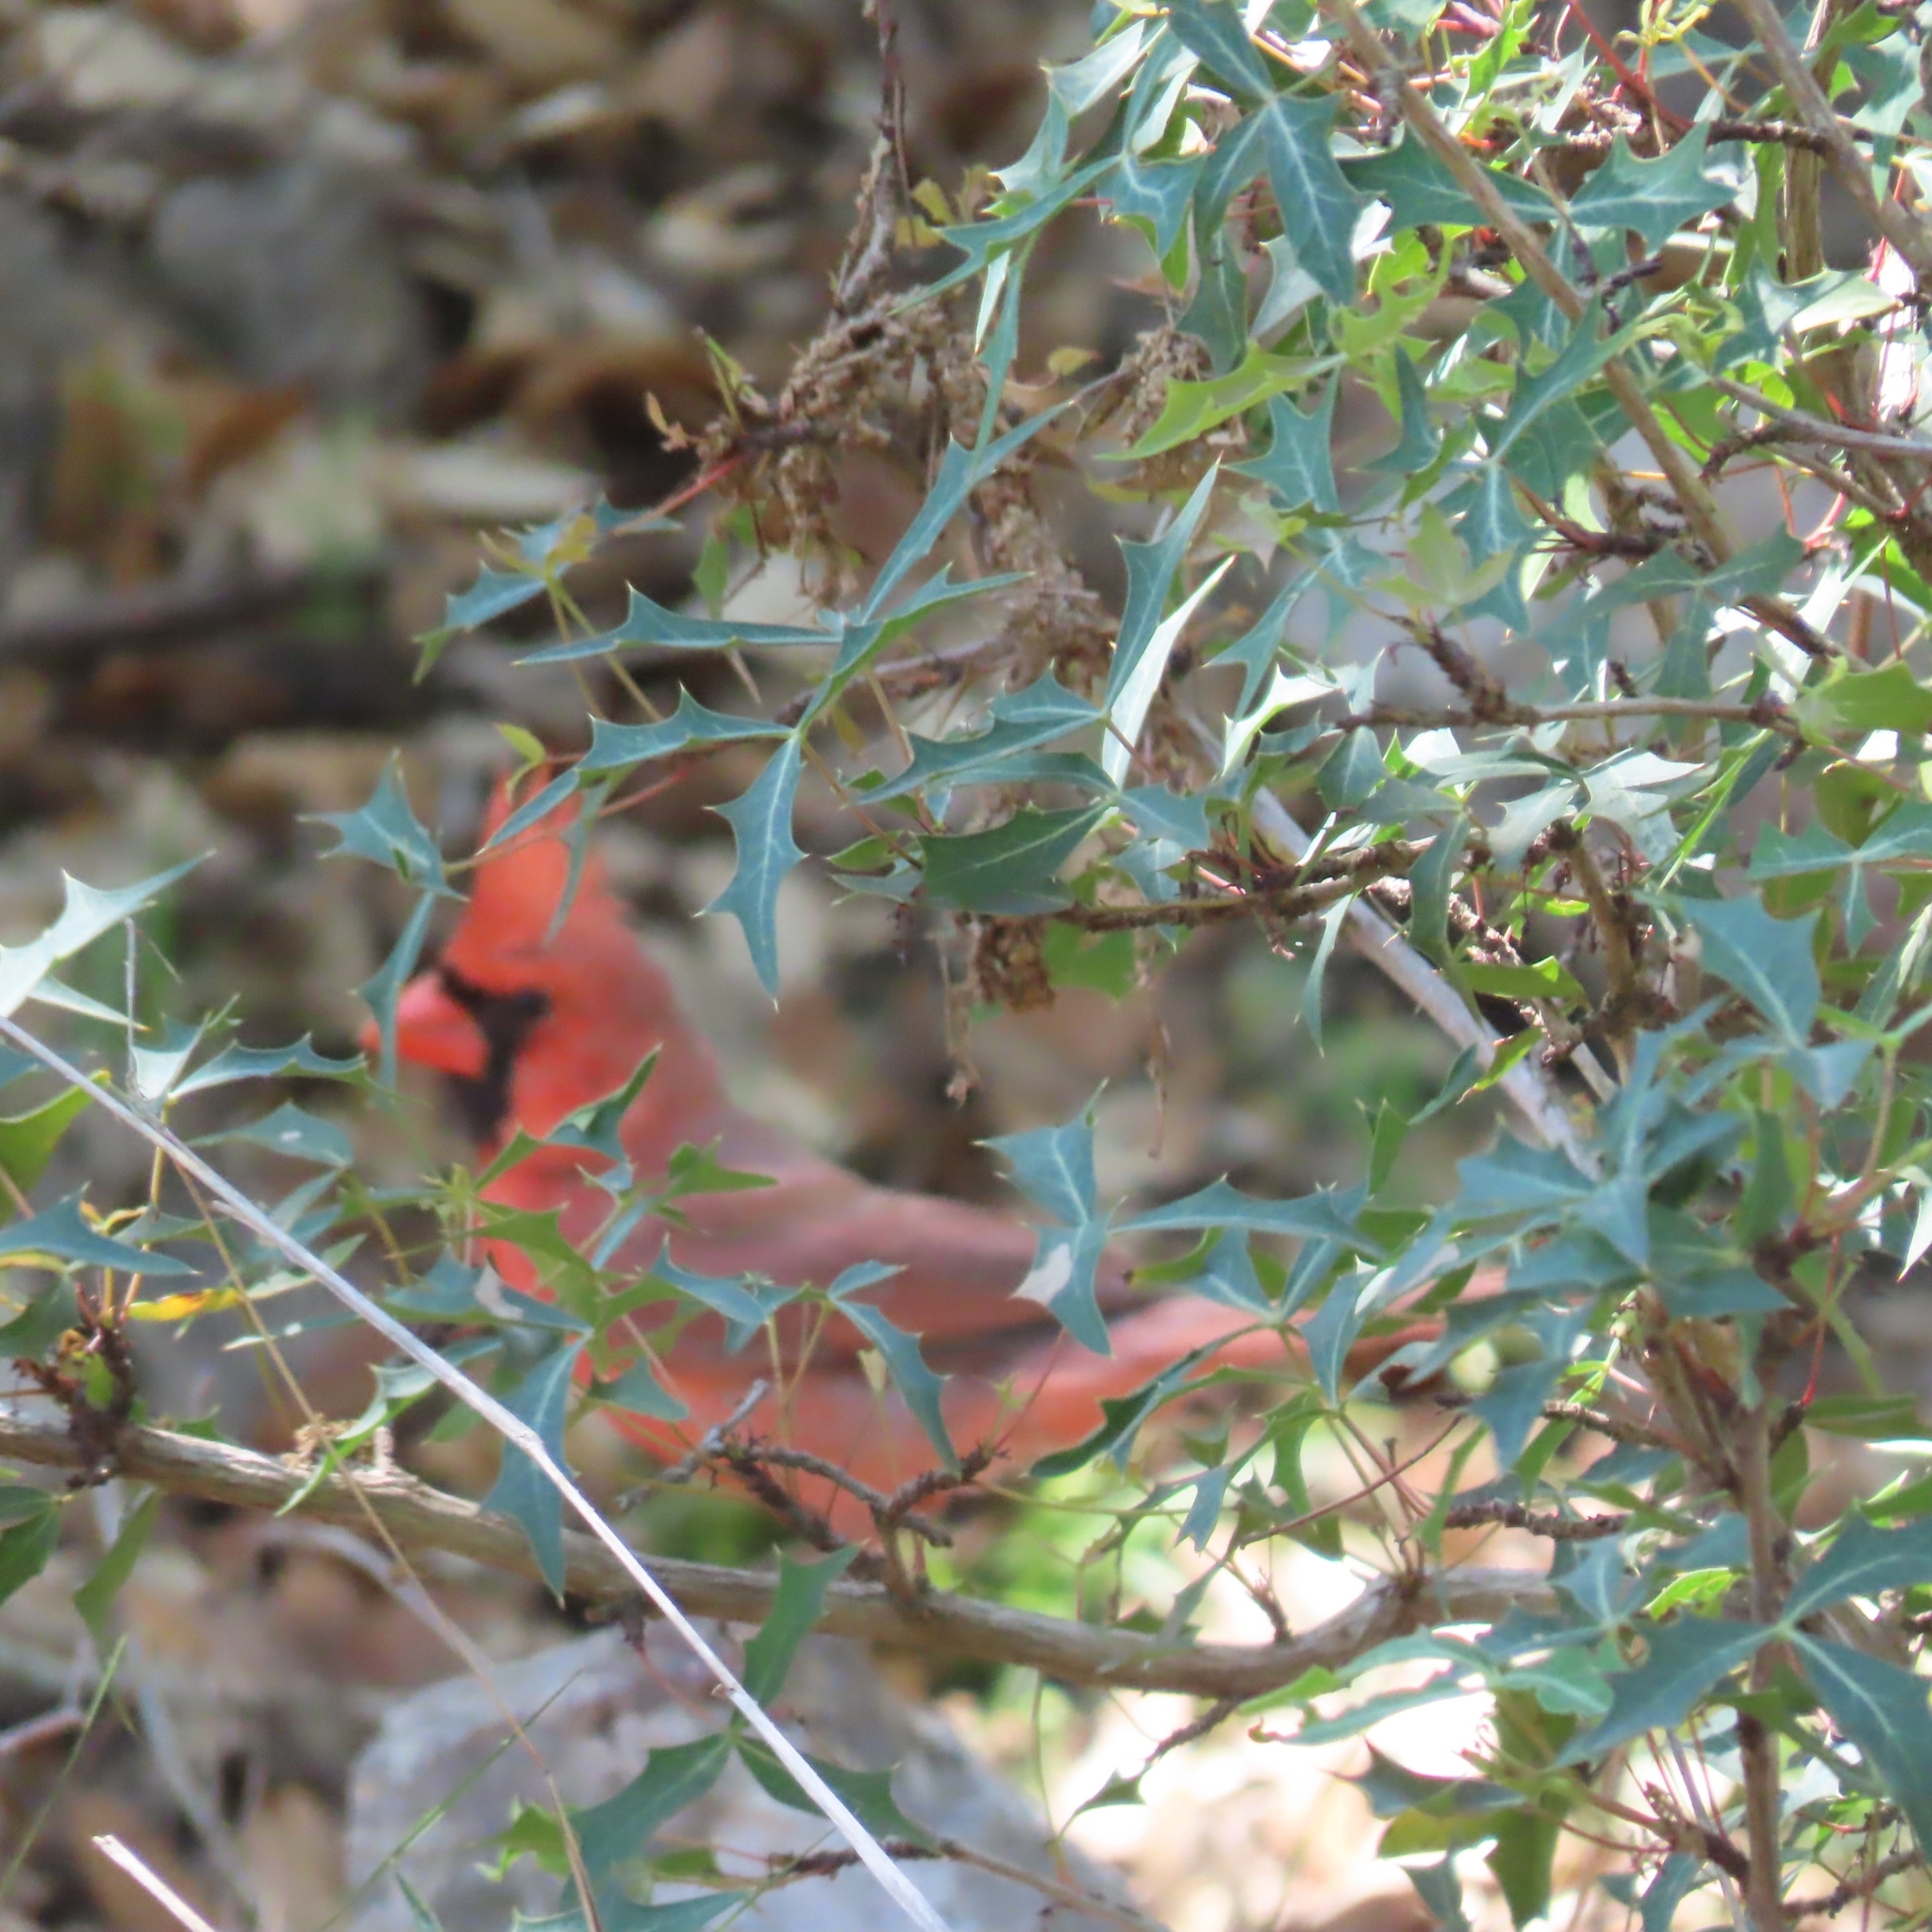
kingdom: Animalia
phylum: Chordata
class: Aves
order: Passeriformes
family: Cardinalidae
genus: Cardinalis
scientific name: Cardinalis cardinalis
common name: Northern cardinal
